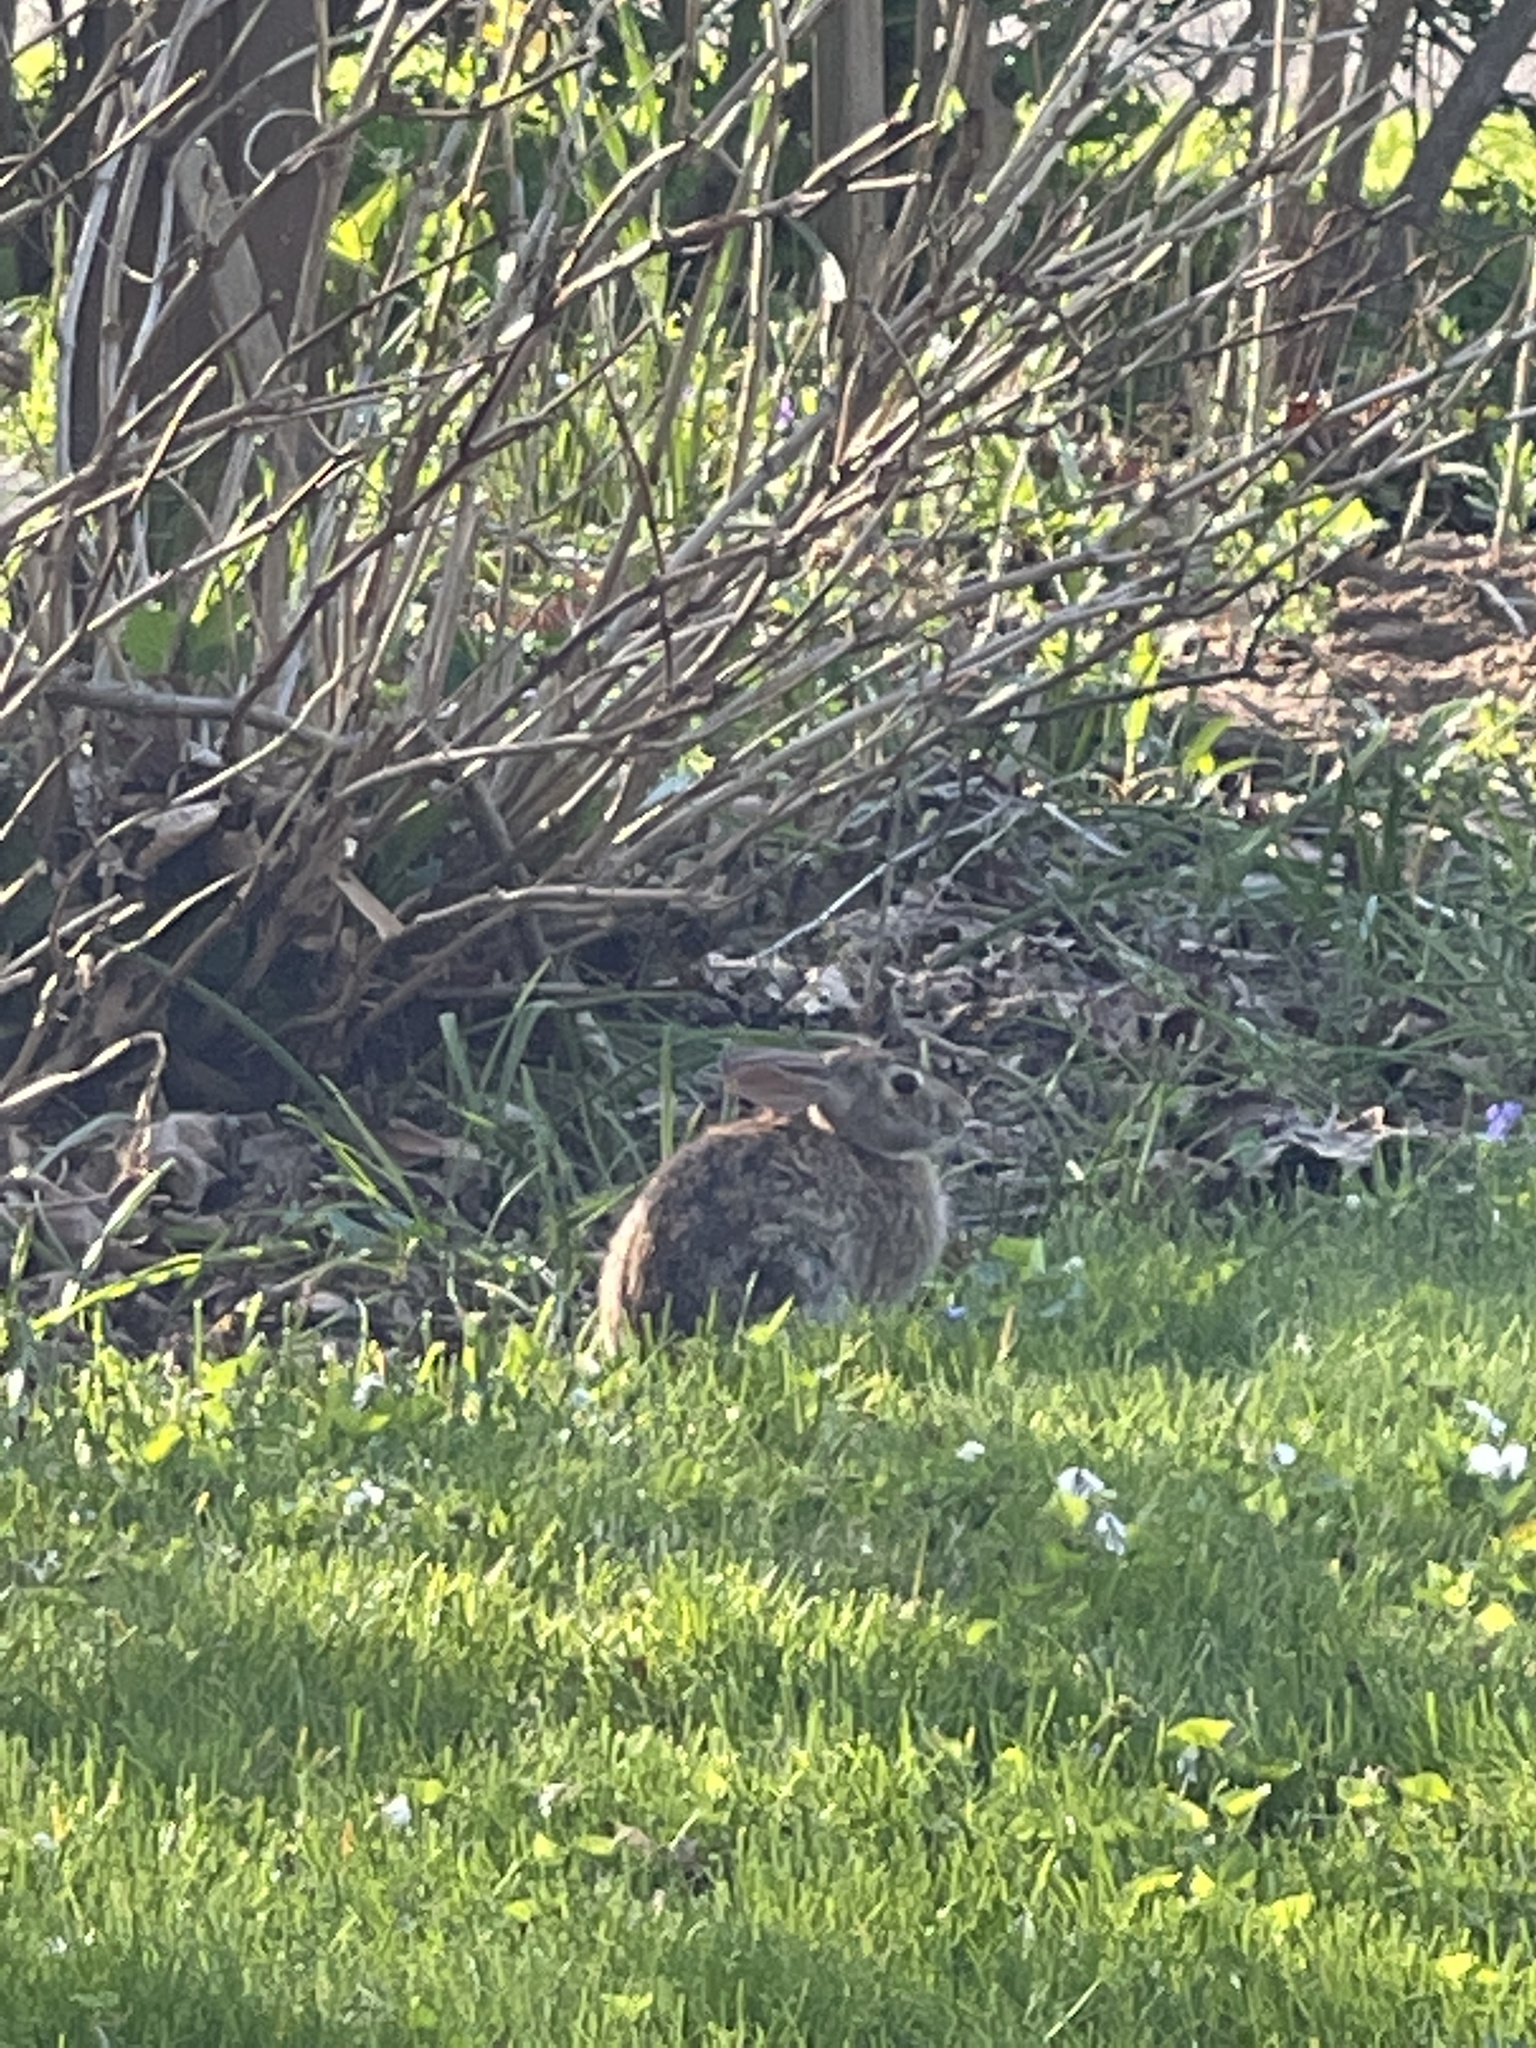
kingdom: Animalia
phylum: Chordata
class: Mammalia
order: Lagomorpha
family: Leporidae
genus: Sylvilagus
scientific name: Sylvilagus floridanus
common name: Eastern cottontail
